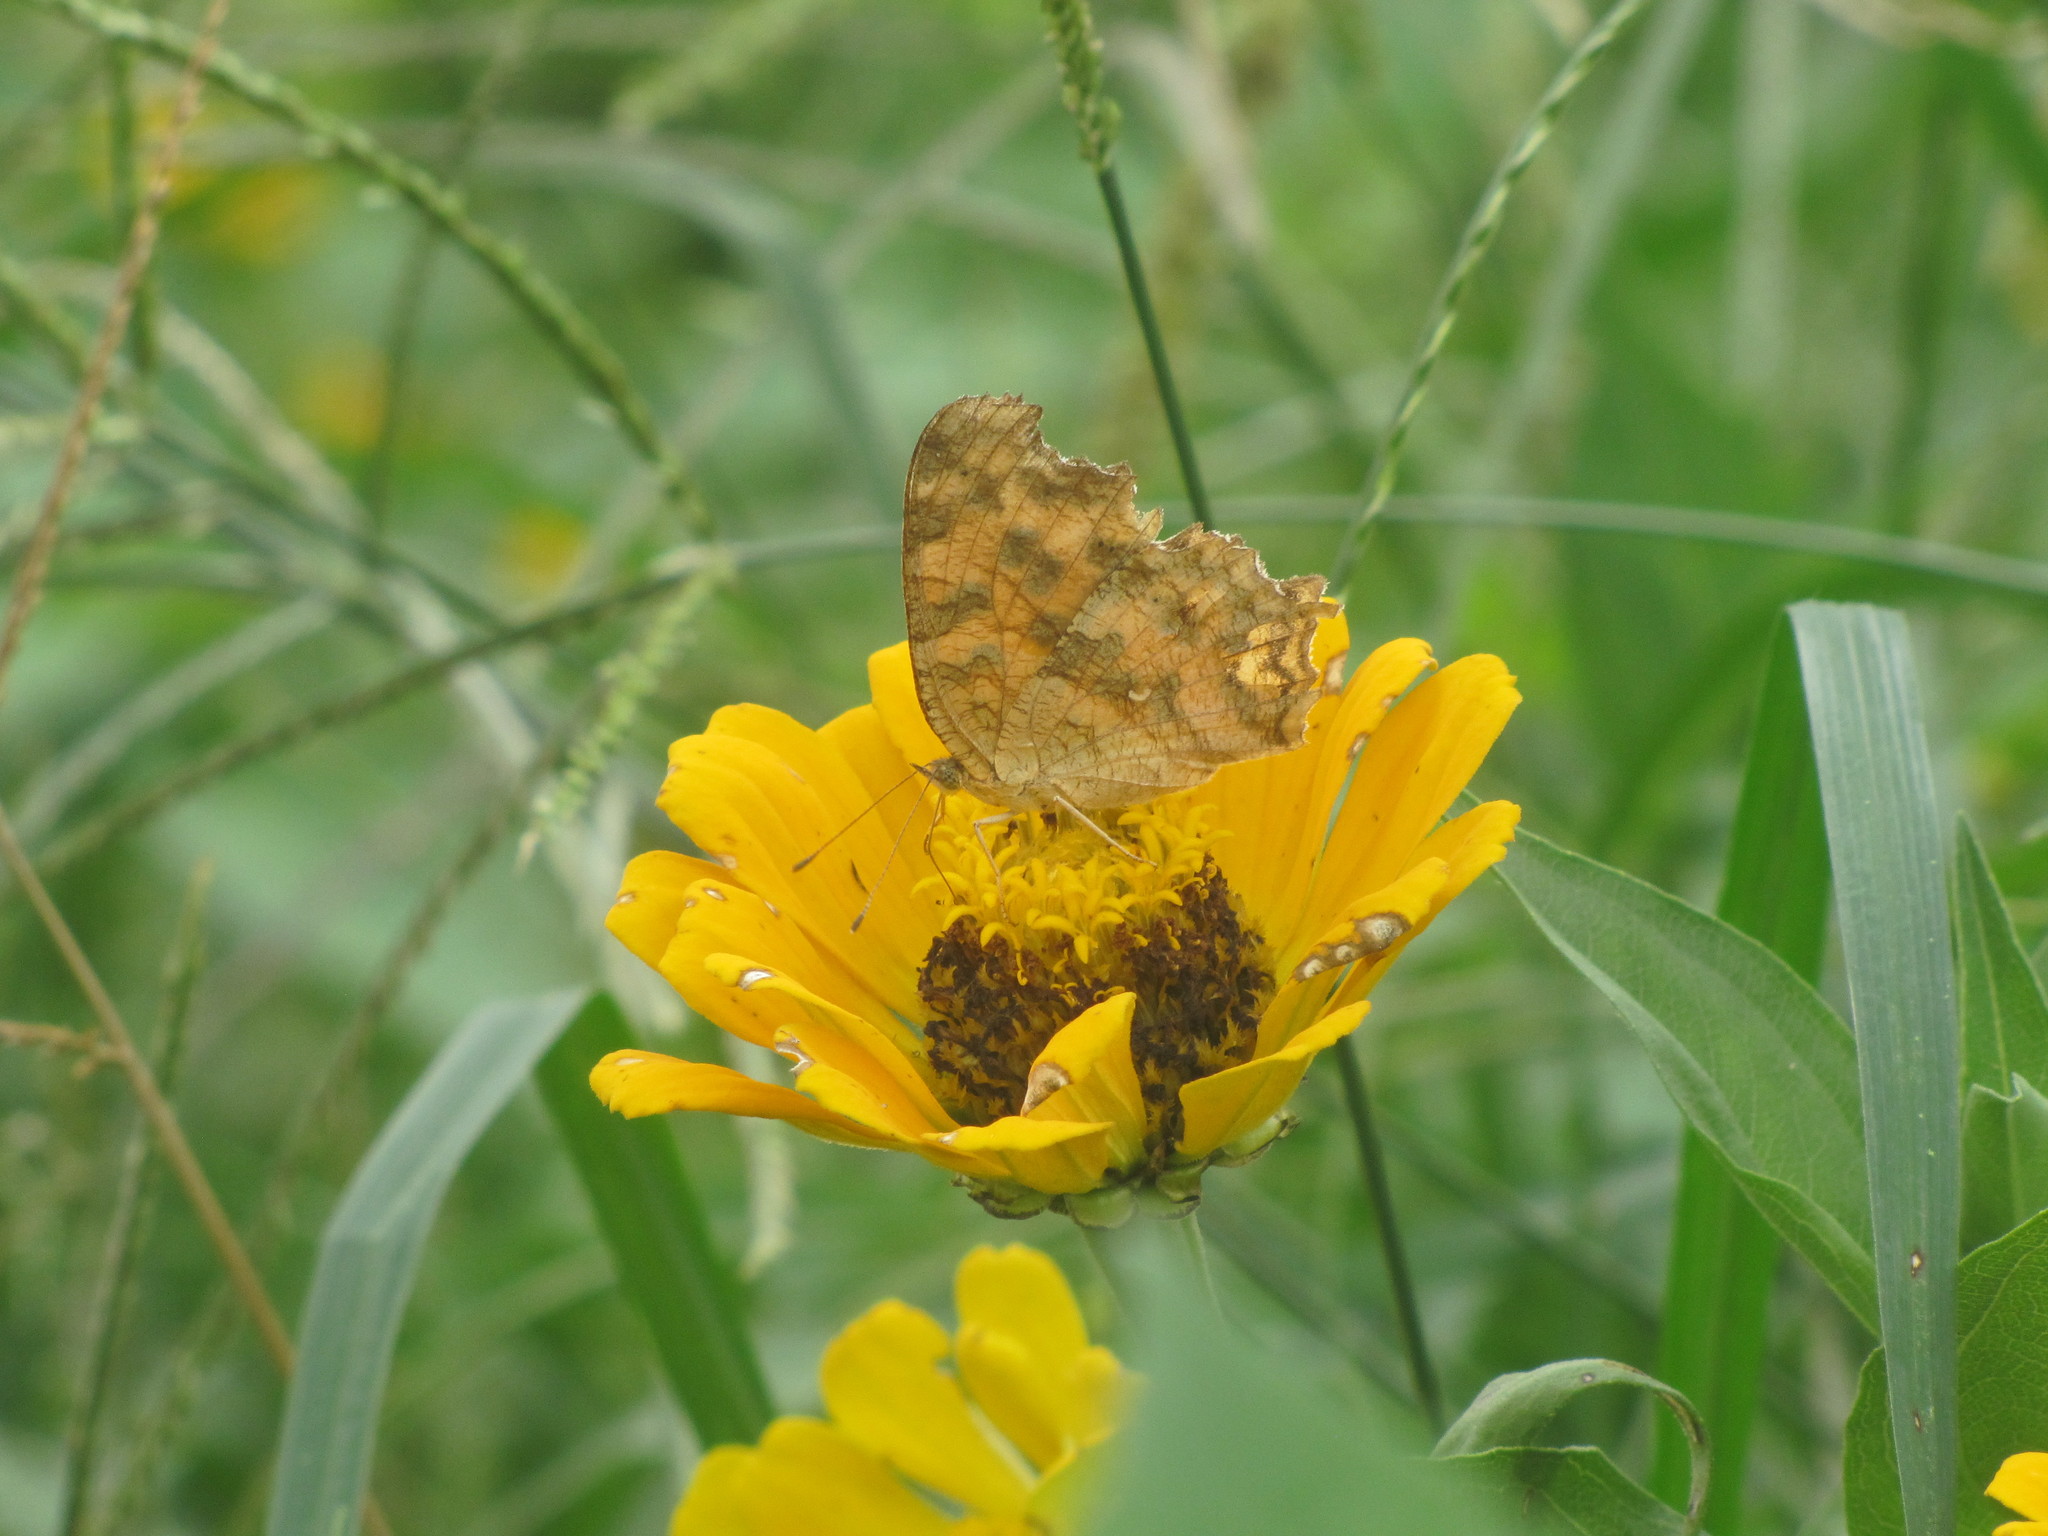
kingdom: Animalia
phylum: Arthropoda
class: Insecta
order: Lepidoptera
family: Nymphalidae
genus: Polygonia
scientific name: Polygonia c-aureum
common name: Asian comma
